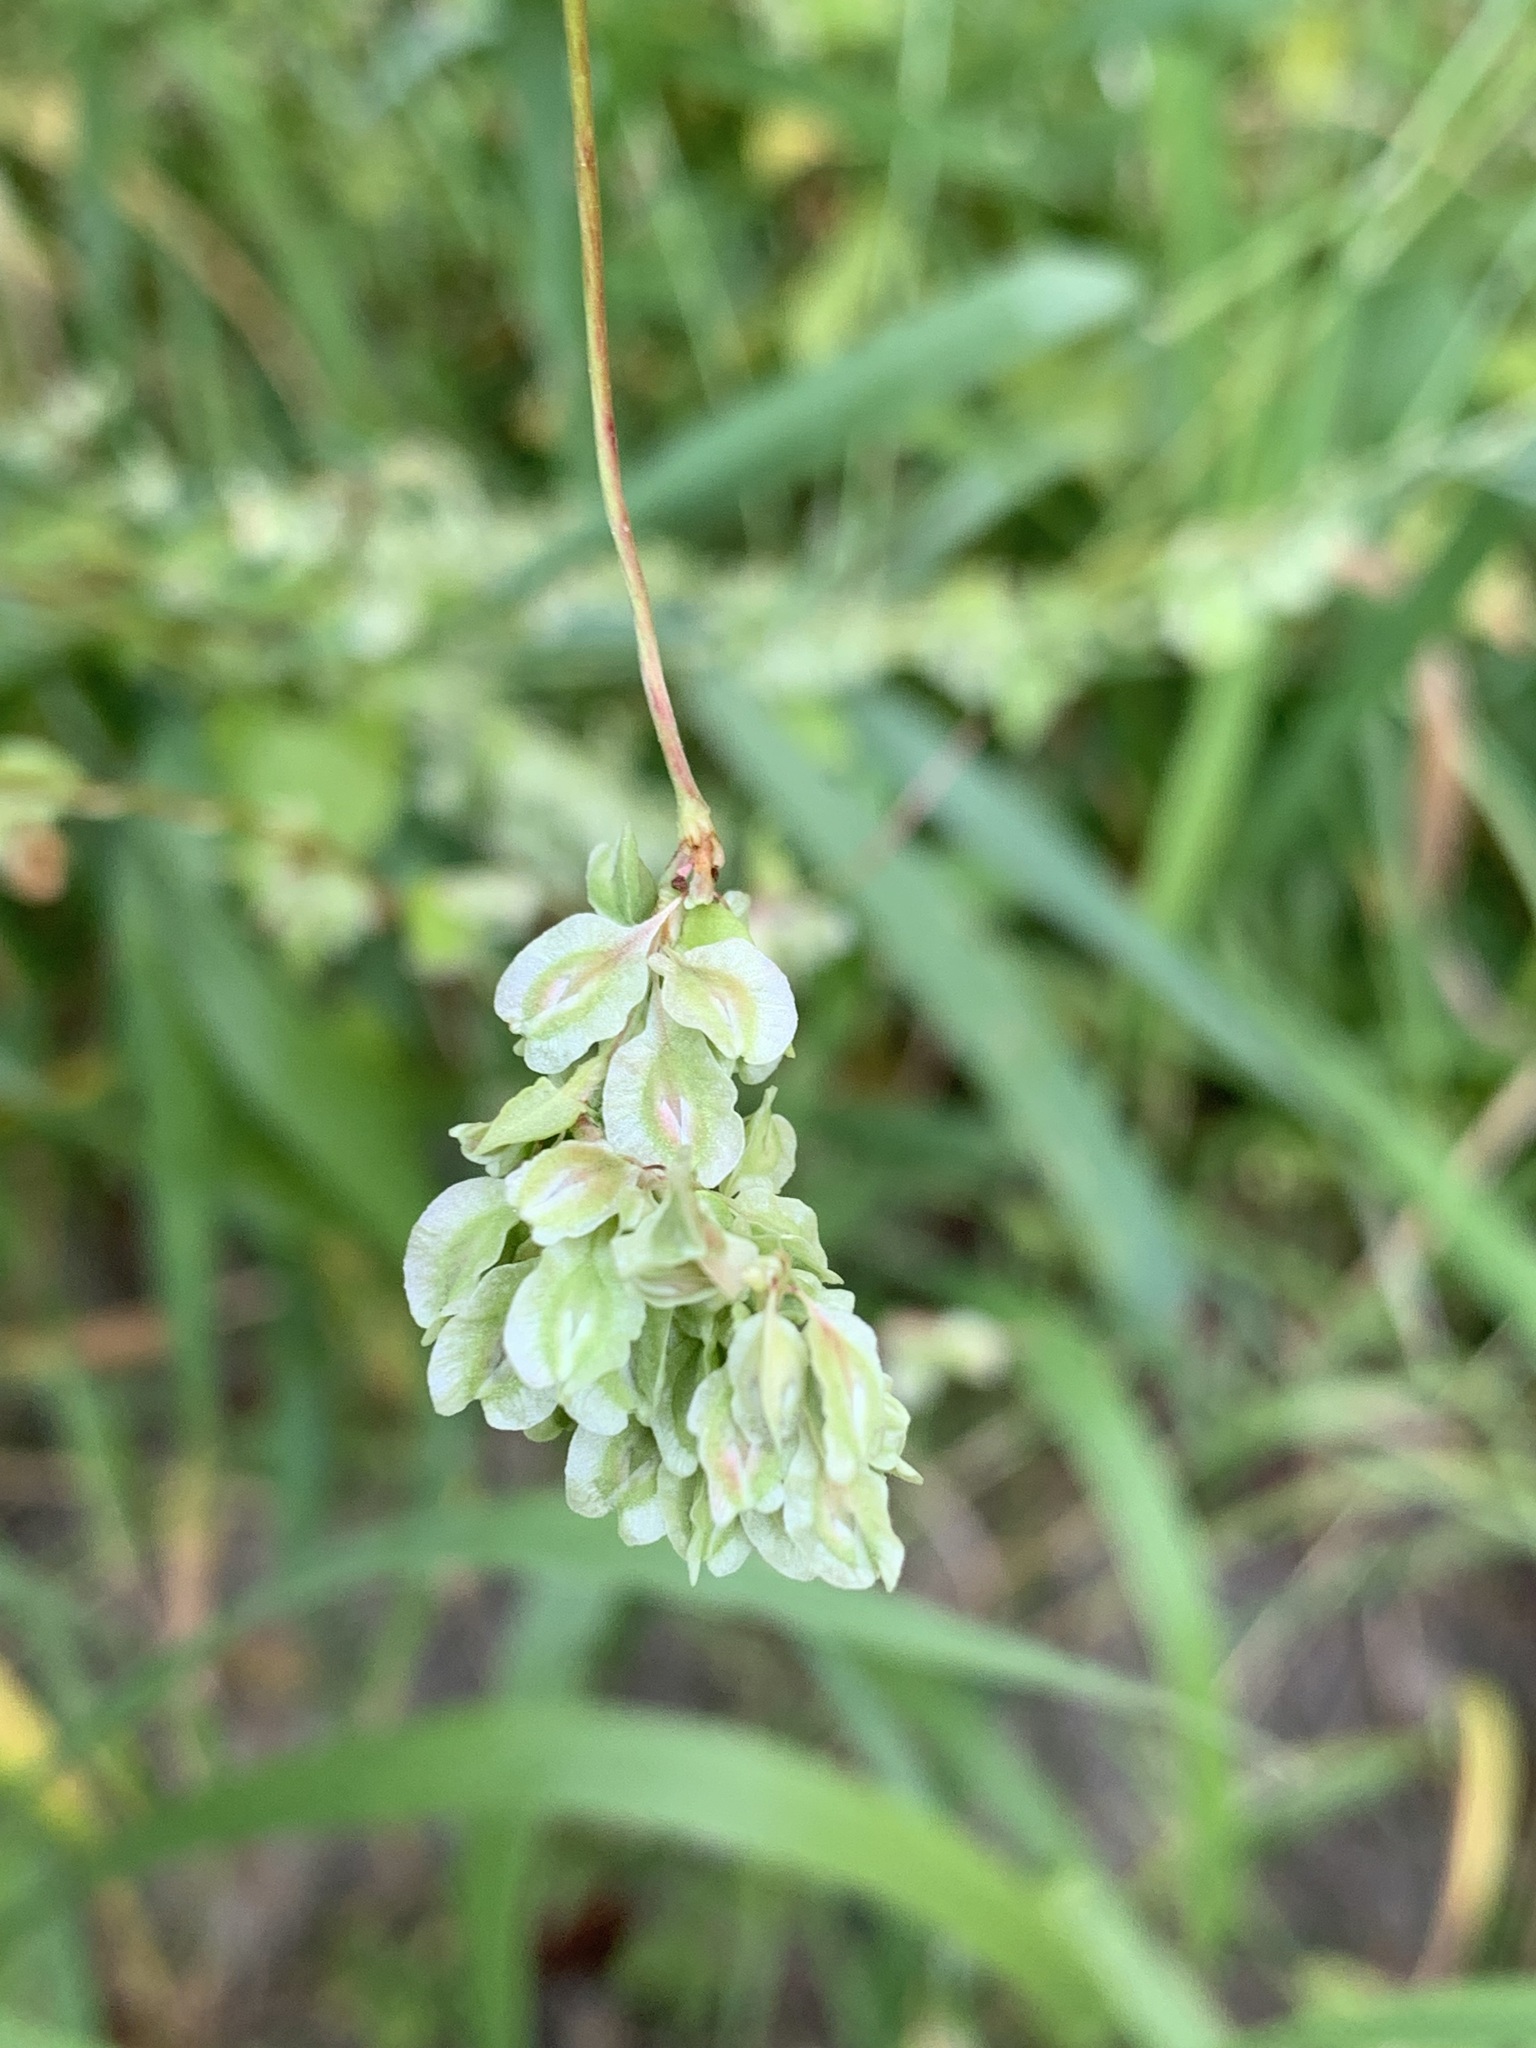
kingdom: Plantae
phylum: Tracheophyta
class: Magnoliopsida
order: Caryophyllales
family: Polygonaceae
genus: Fallopia
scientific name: Fallopia dumetorum
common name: Copse-bindweed
